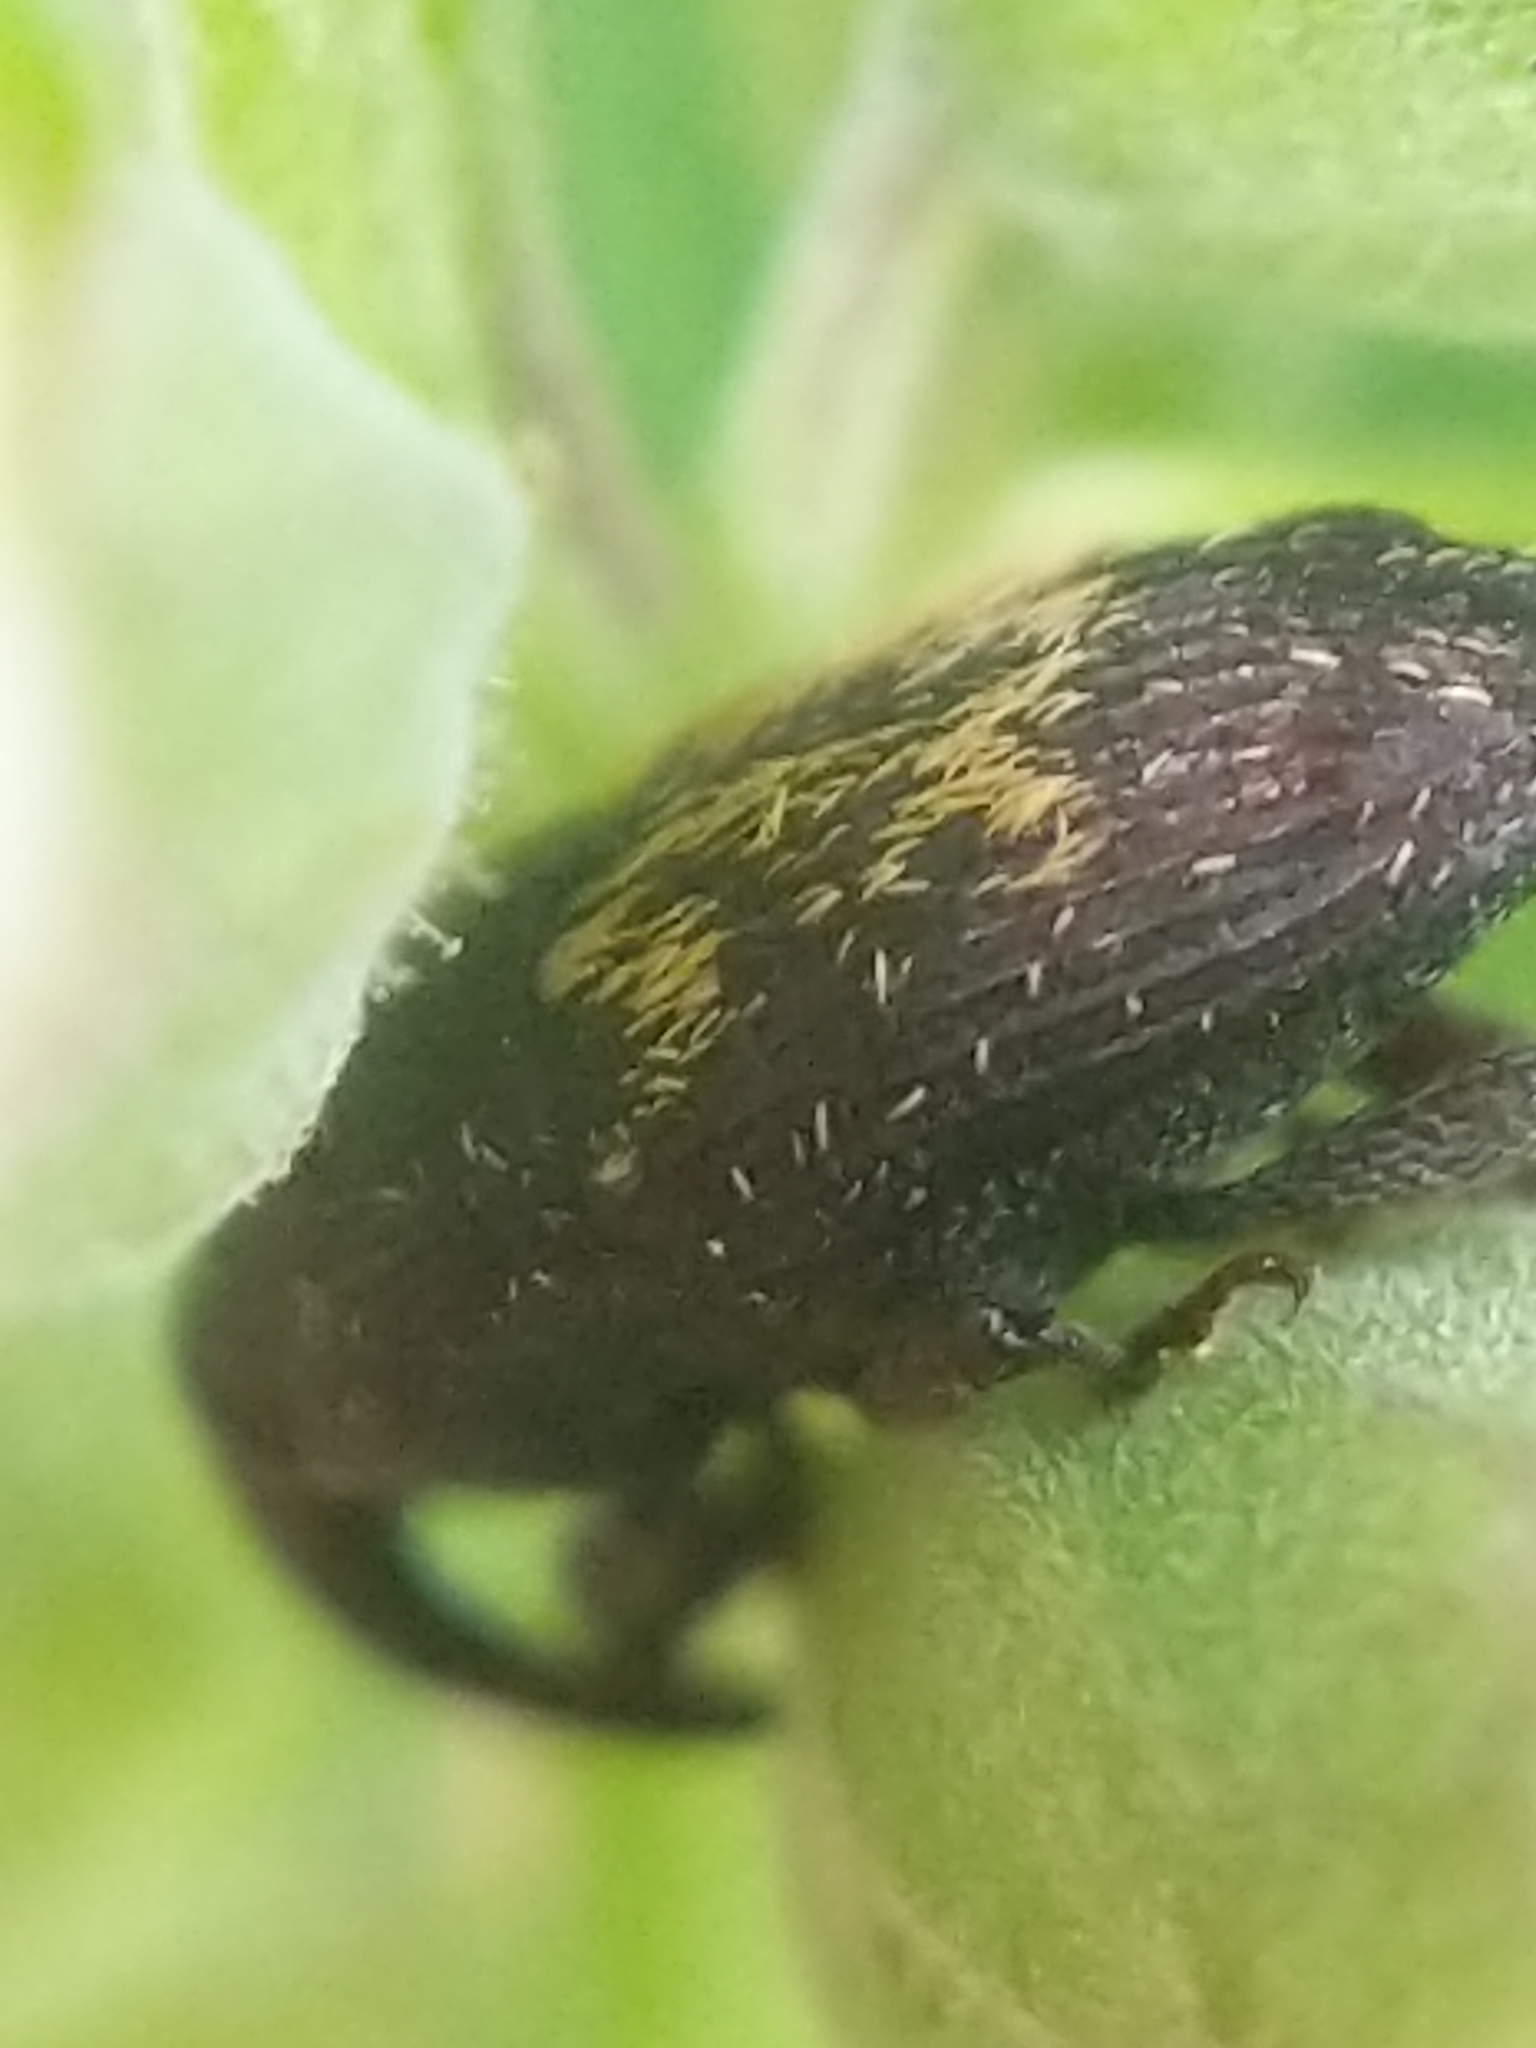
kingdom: Animalia
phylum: Arthropoda
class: Insecta
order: Coleoptera
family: Curculionidae
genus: Glyptobaris
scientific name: Glyptobaris lecontei
